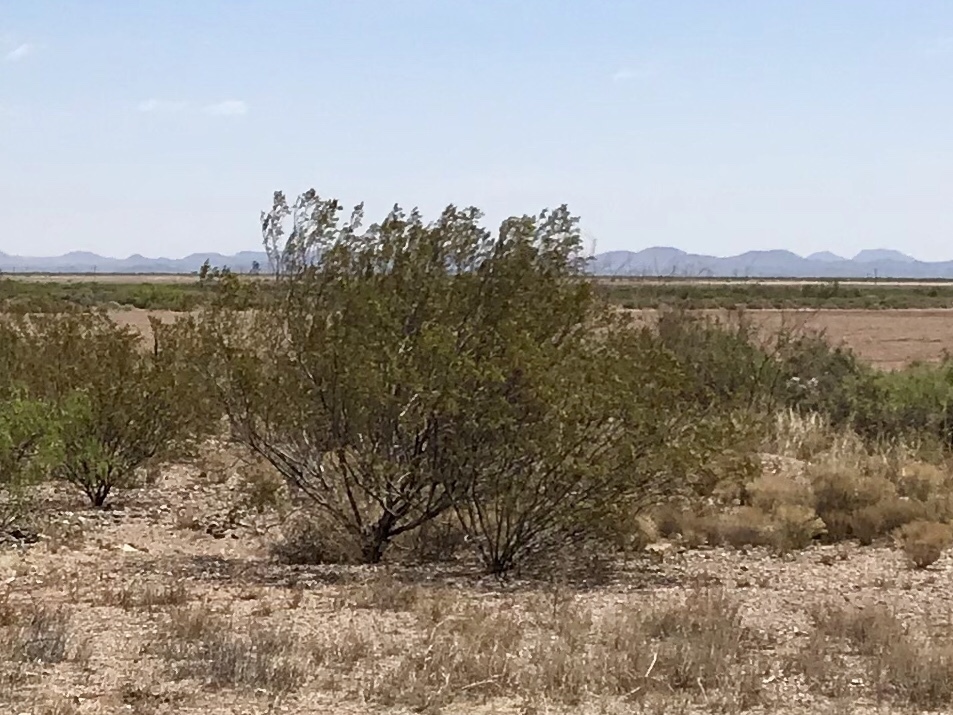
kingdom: Plantae
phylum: Tracheophyta
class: Magnoliopsida
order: Zygophyllales
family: Zygophyllaceae
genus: Larrea
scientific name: Larrea tridentata
